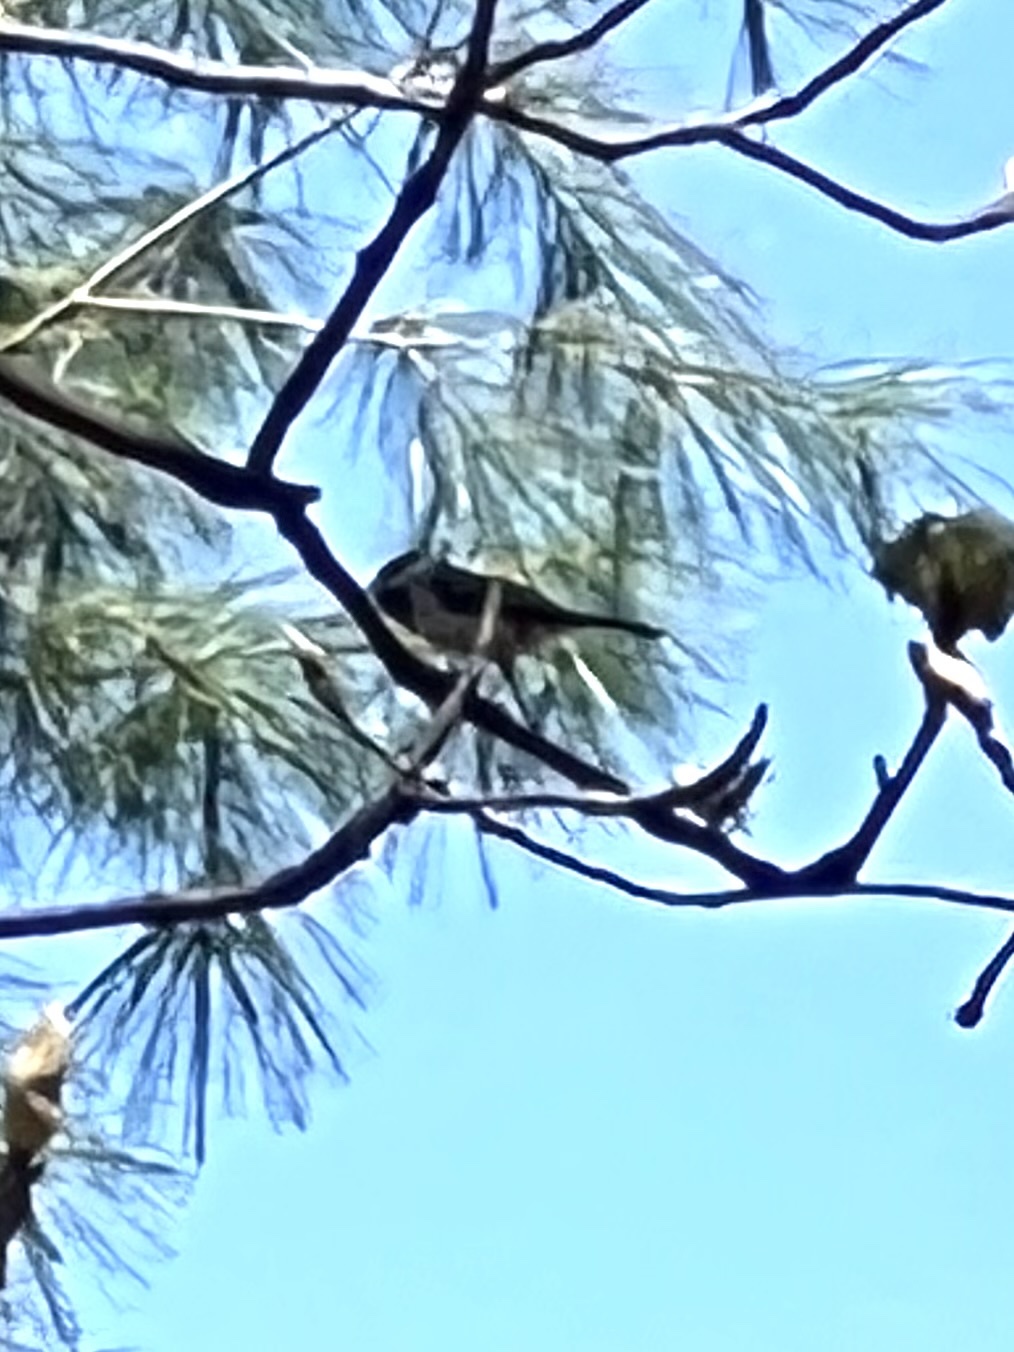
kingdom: Animalia
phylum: Chordata
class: Aves
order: Passeriformes
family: Paridae
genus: Poecile
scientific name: Poecile carolinensis
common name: Carolina chickadee
